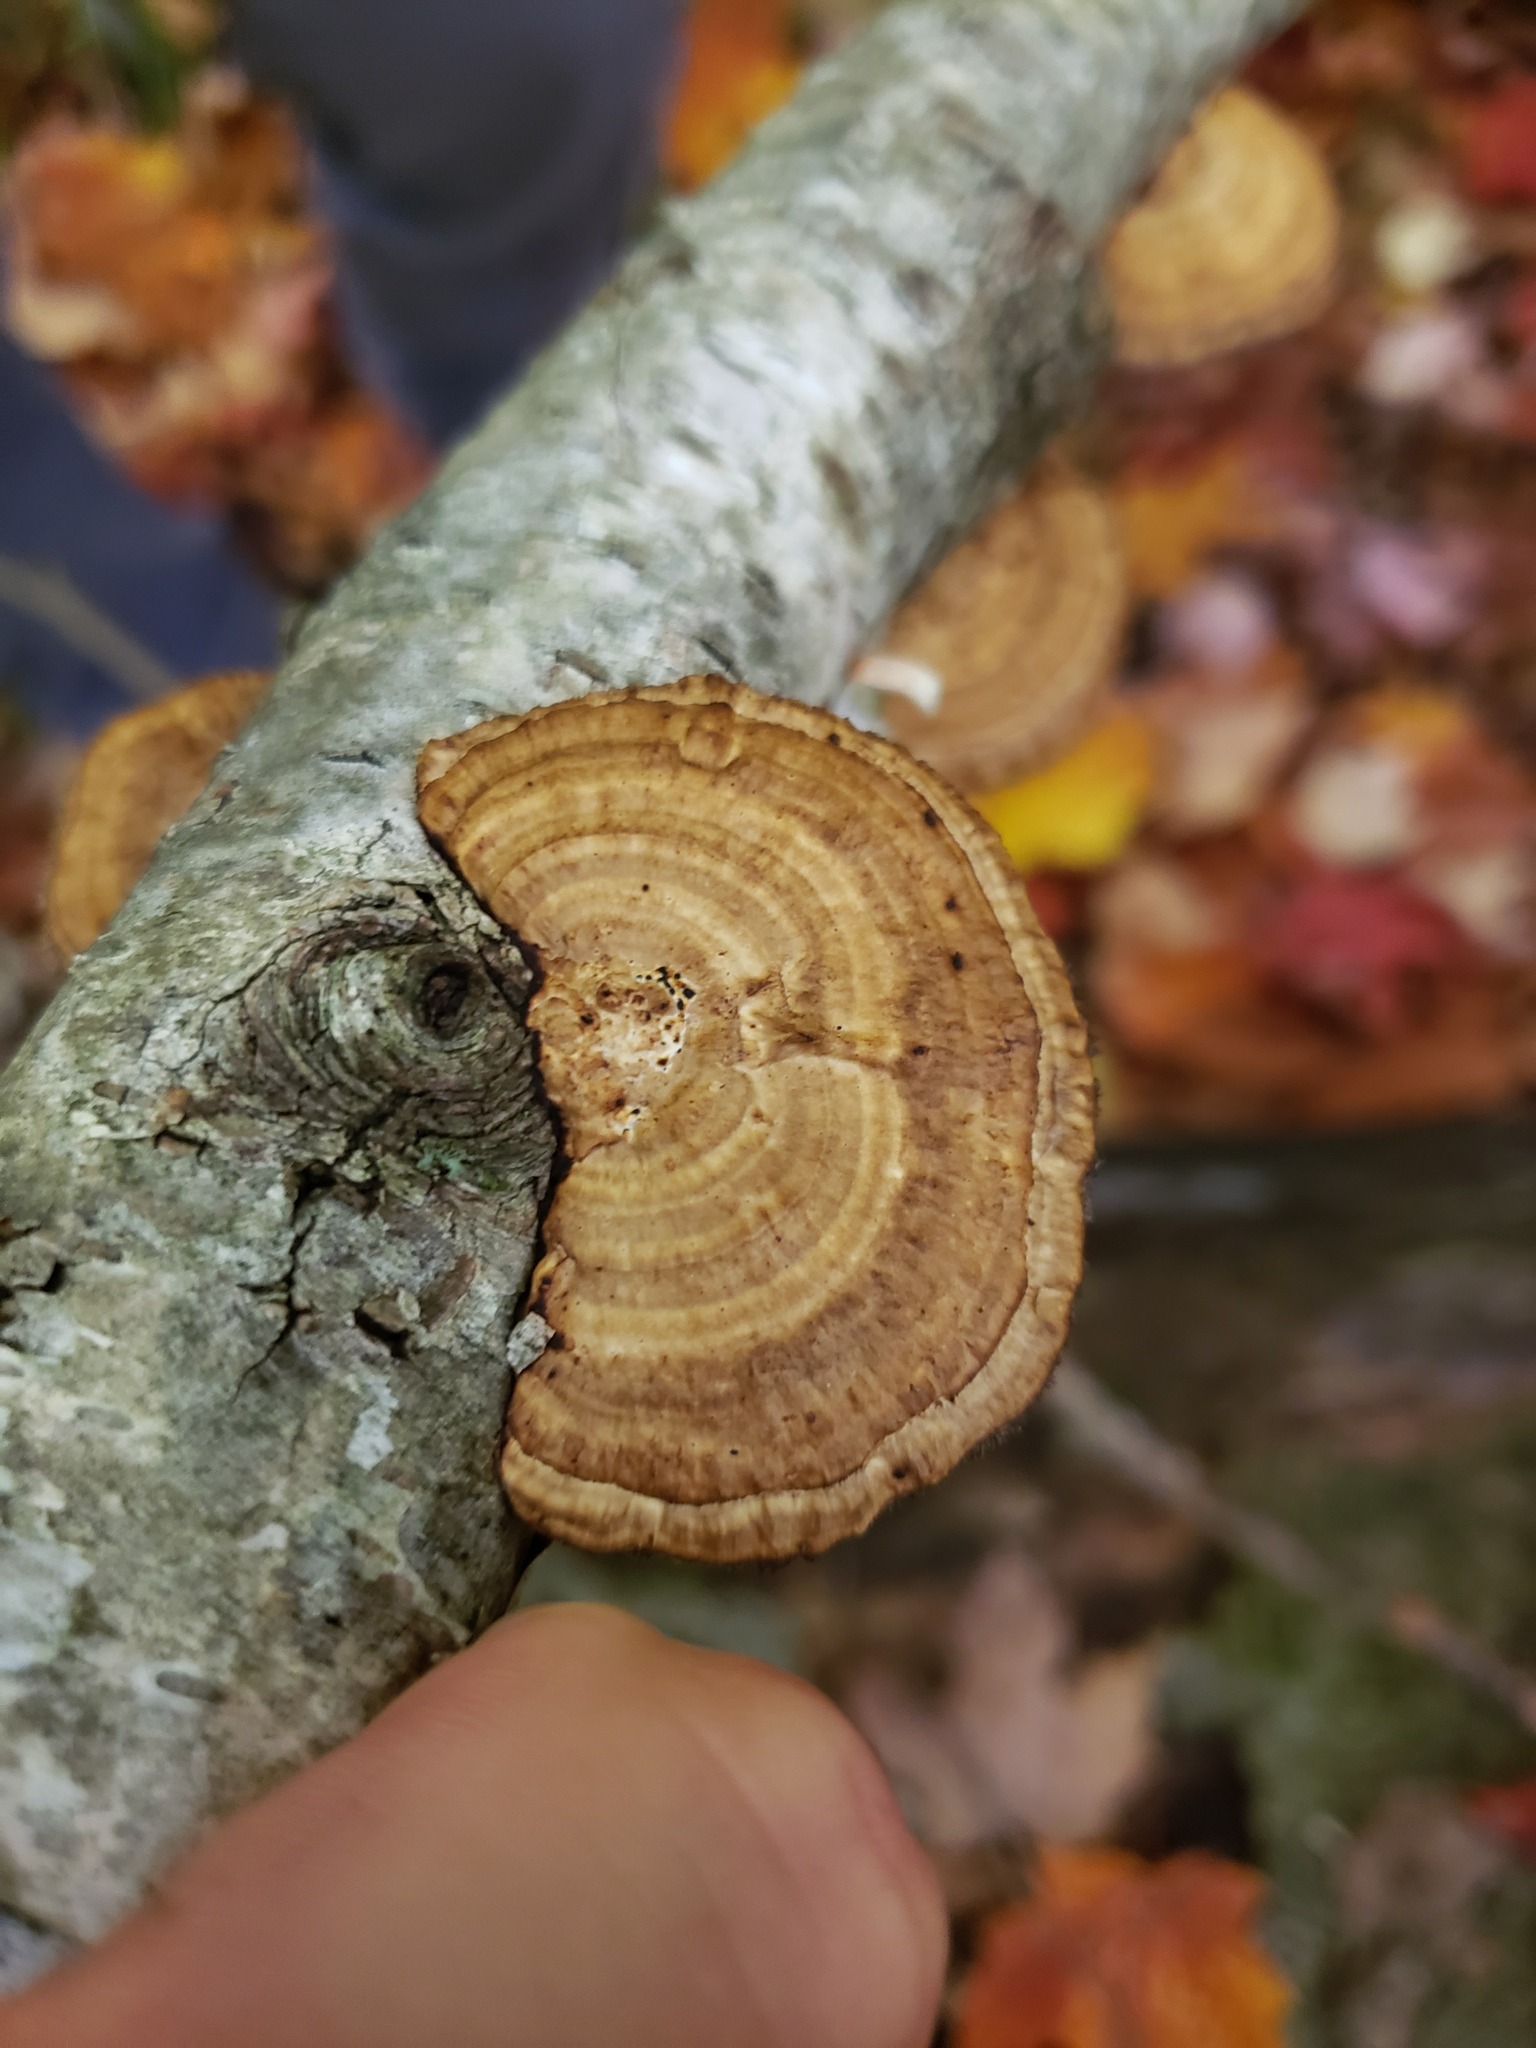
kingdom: Fungi
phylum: Basidiomycota
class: Agaricomycetes
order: Polyporales
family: Polyporaceae
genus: Daedaleopsis
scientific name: Daedaleopsis confragosa
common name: Blushing bracket
